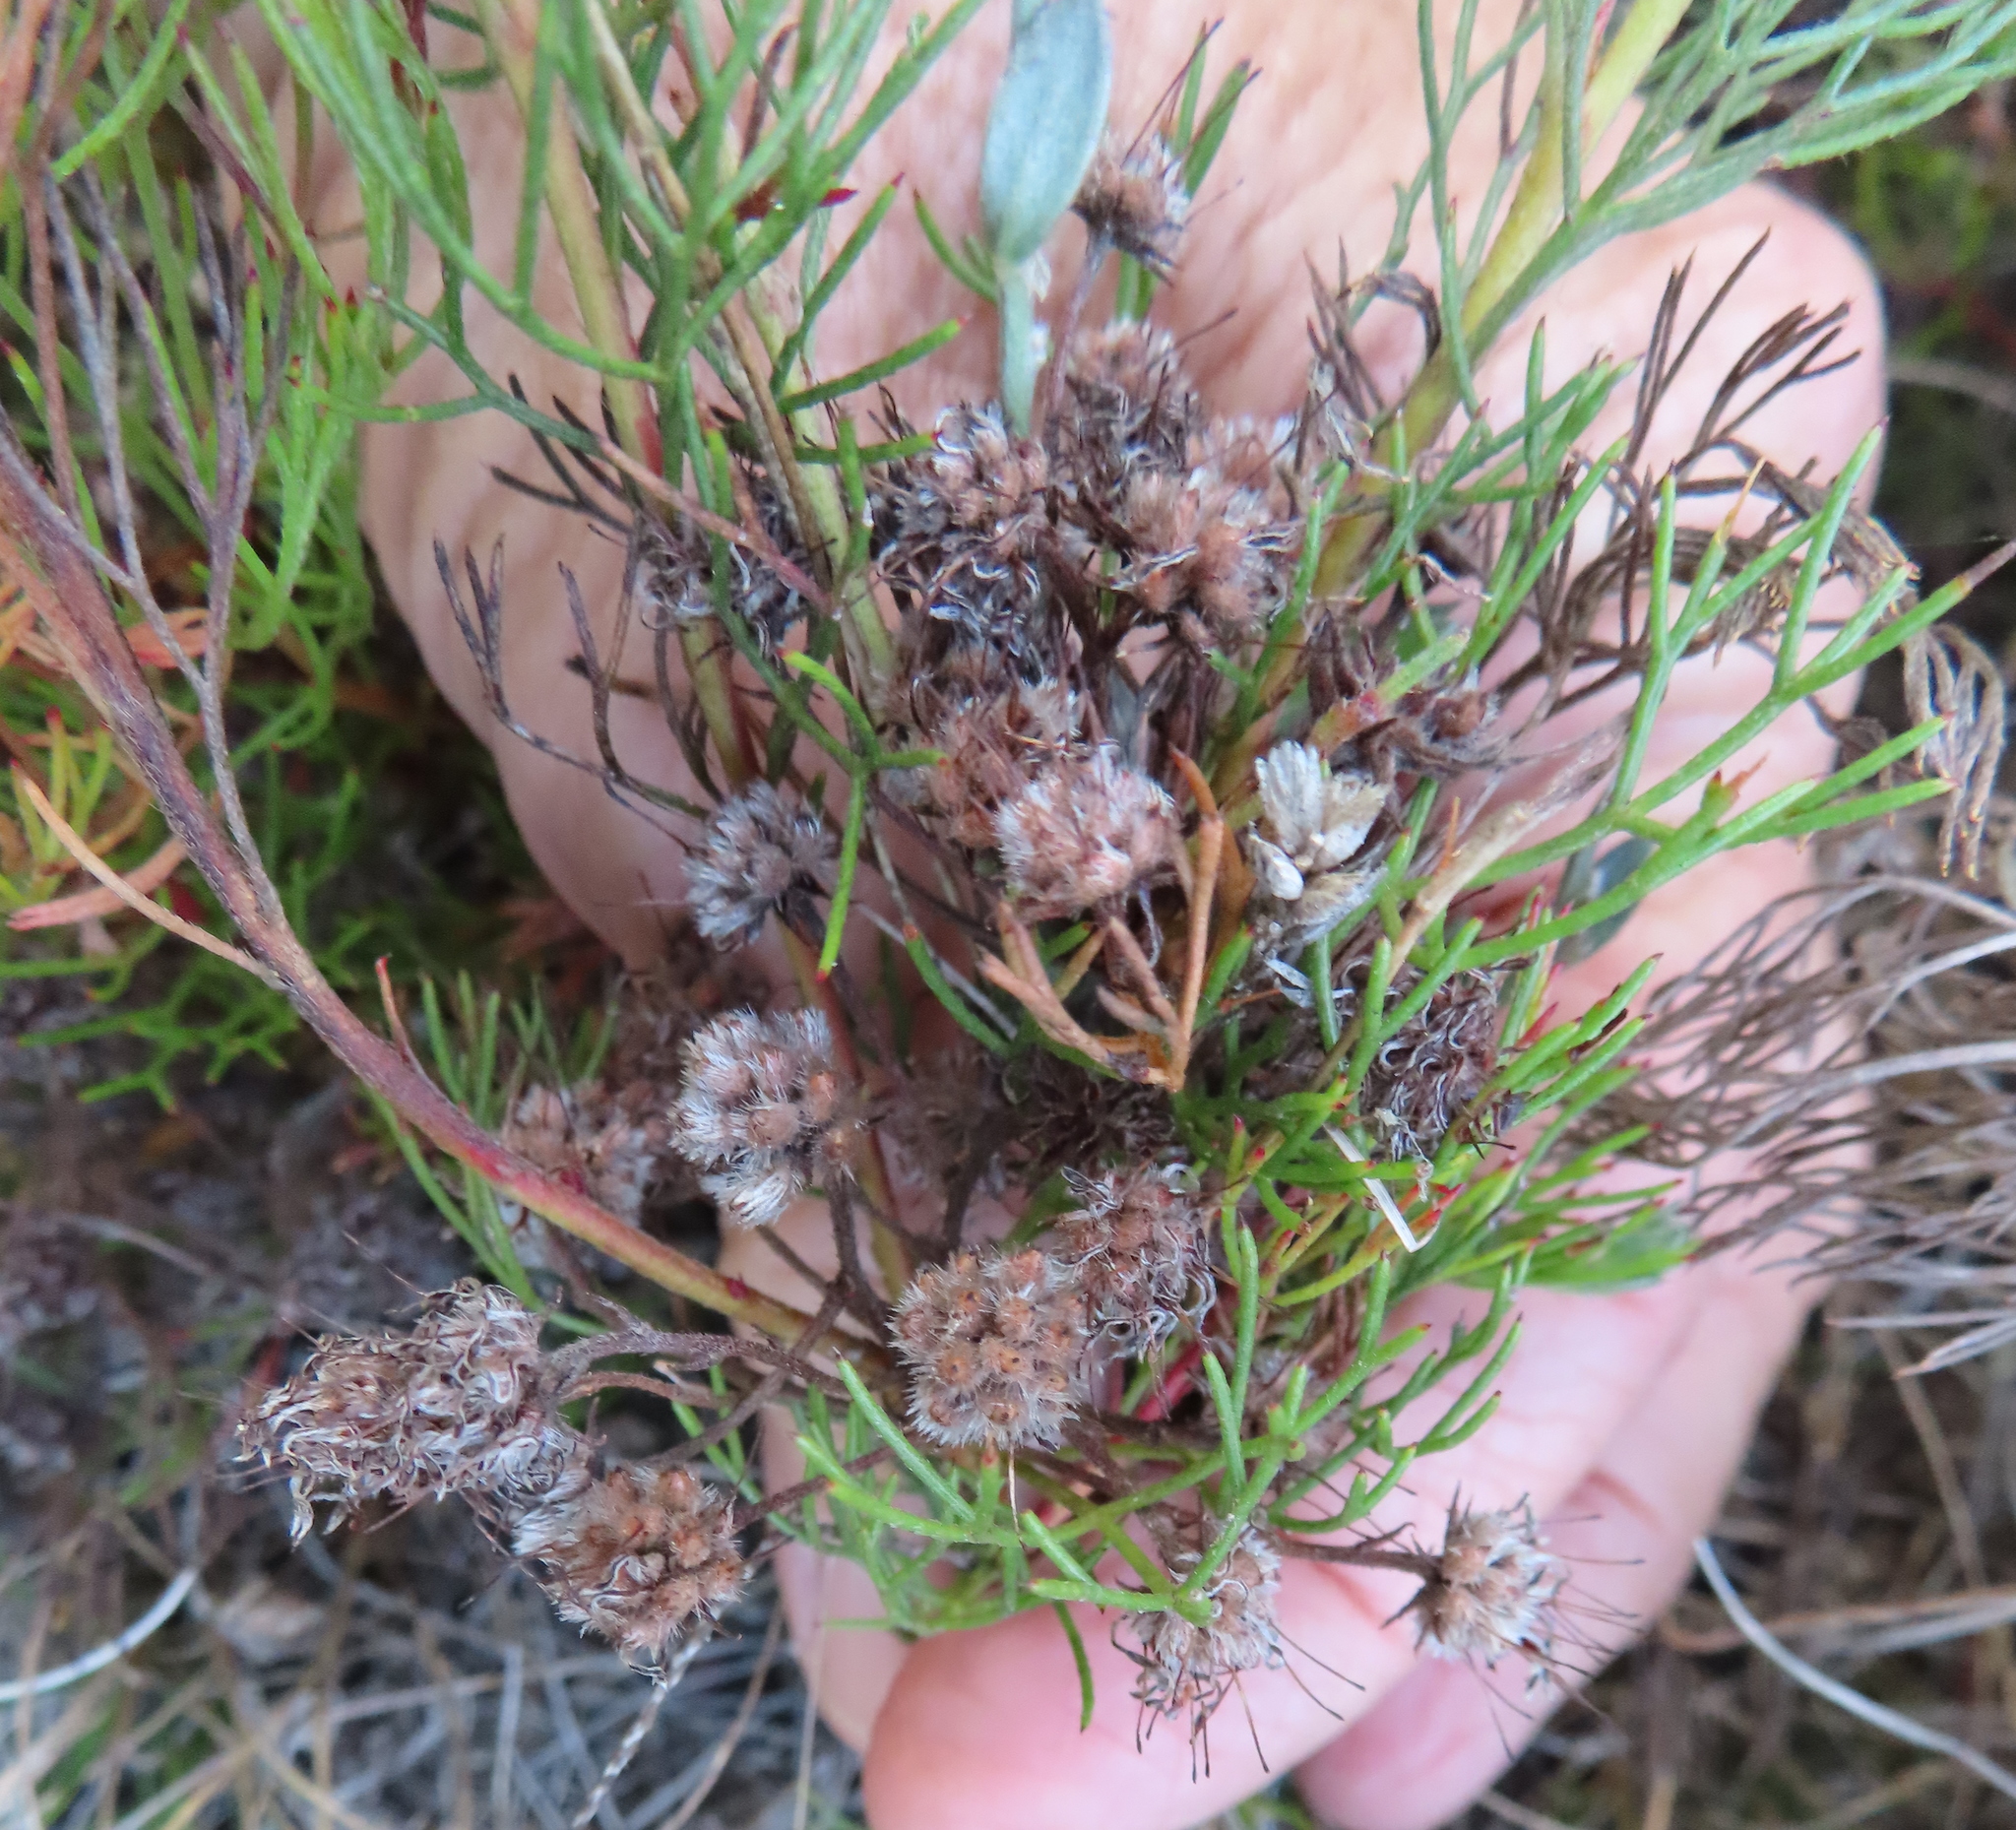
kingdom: Plantae
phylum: Tracheophyta
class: Magnoliopsida
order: Proteales
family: Proteaceae
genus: Serruria
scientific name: Serruria fasciflora
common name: Common pin spiderhead
